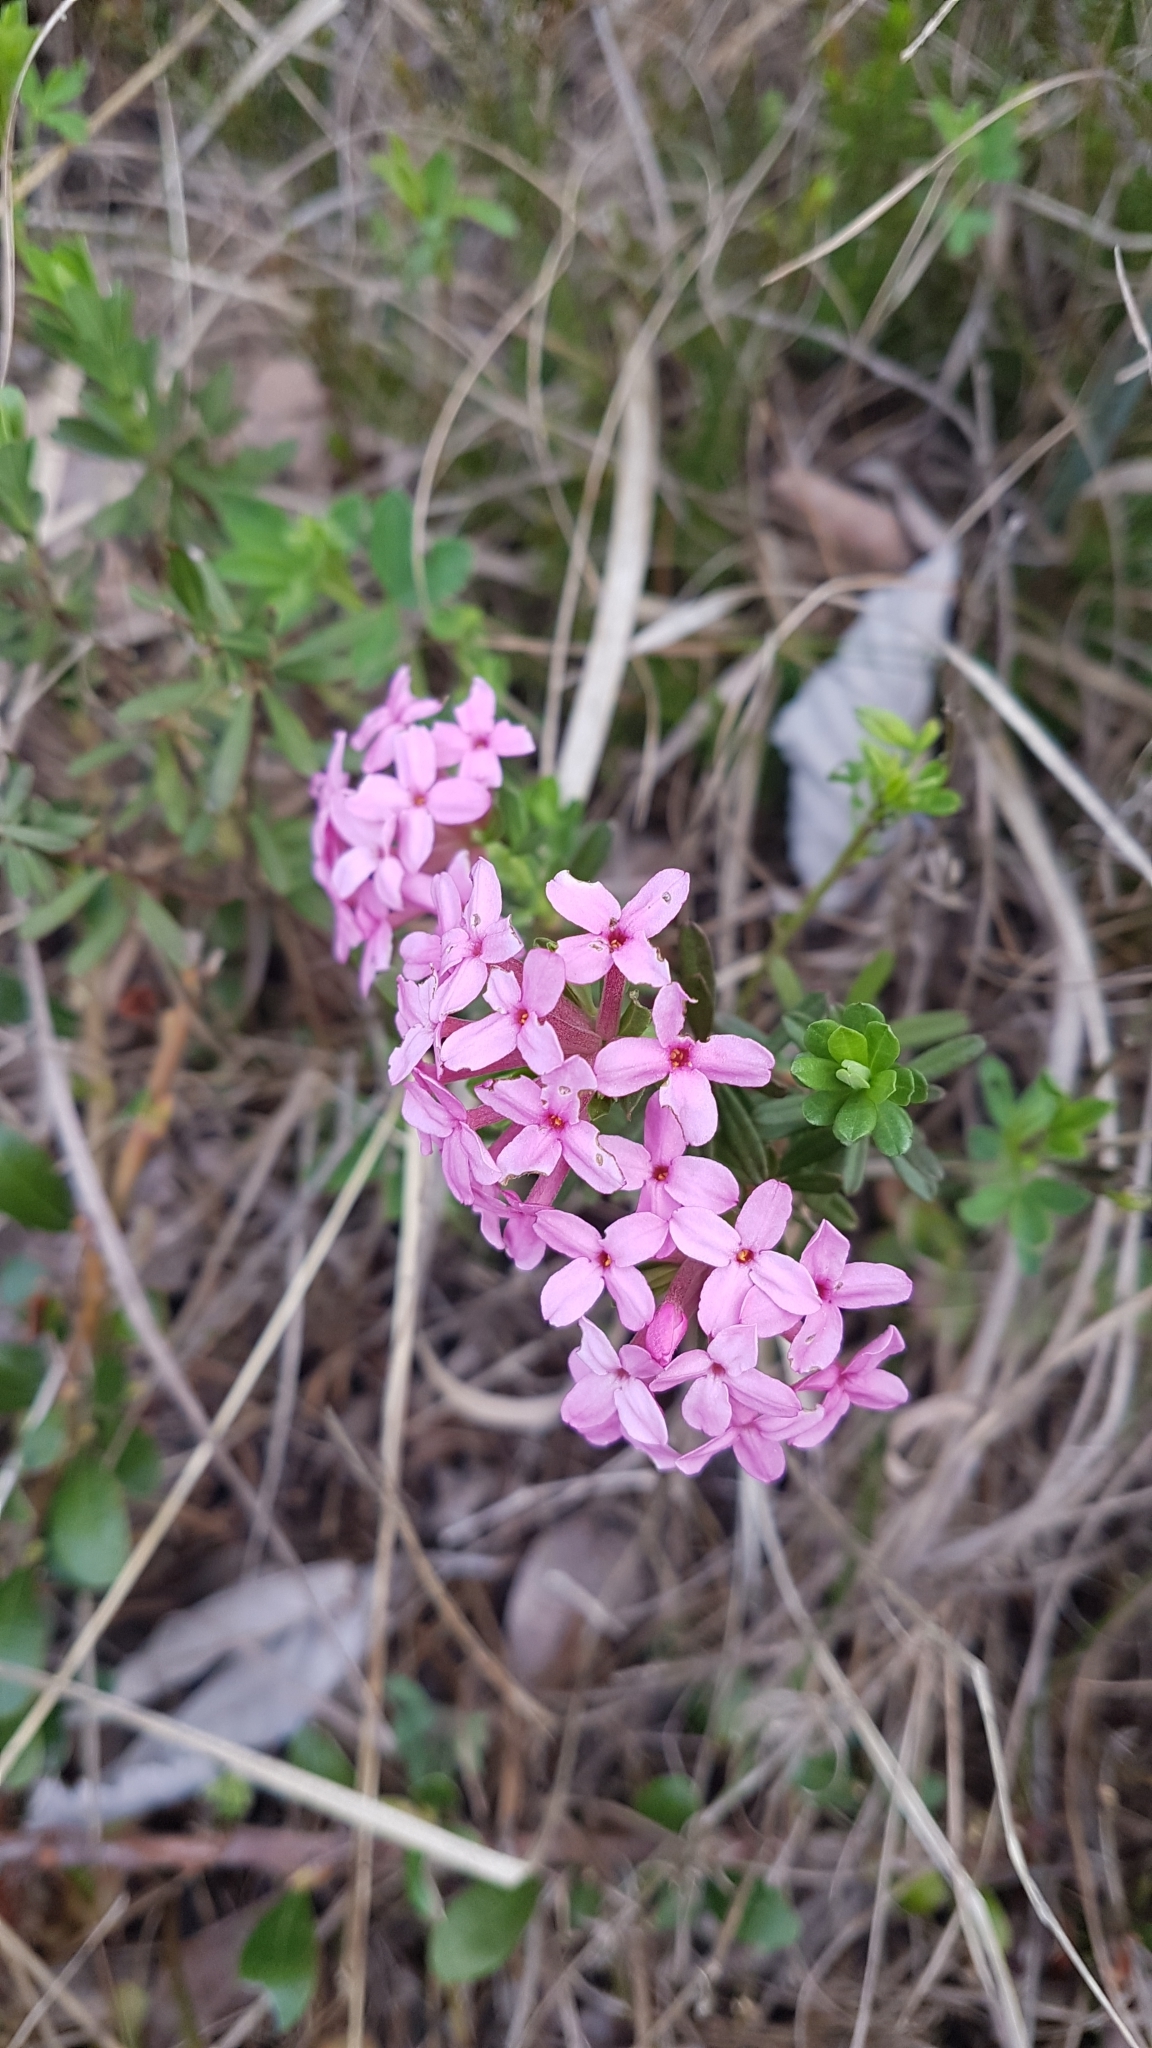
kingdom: Plantae
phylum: Tracheophyta
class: Magnoliopsida
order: Malvales
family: Thymelaeaceae
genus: Daphne
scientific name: Daphne cneorum
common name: Garland-flower
